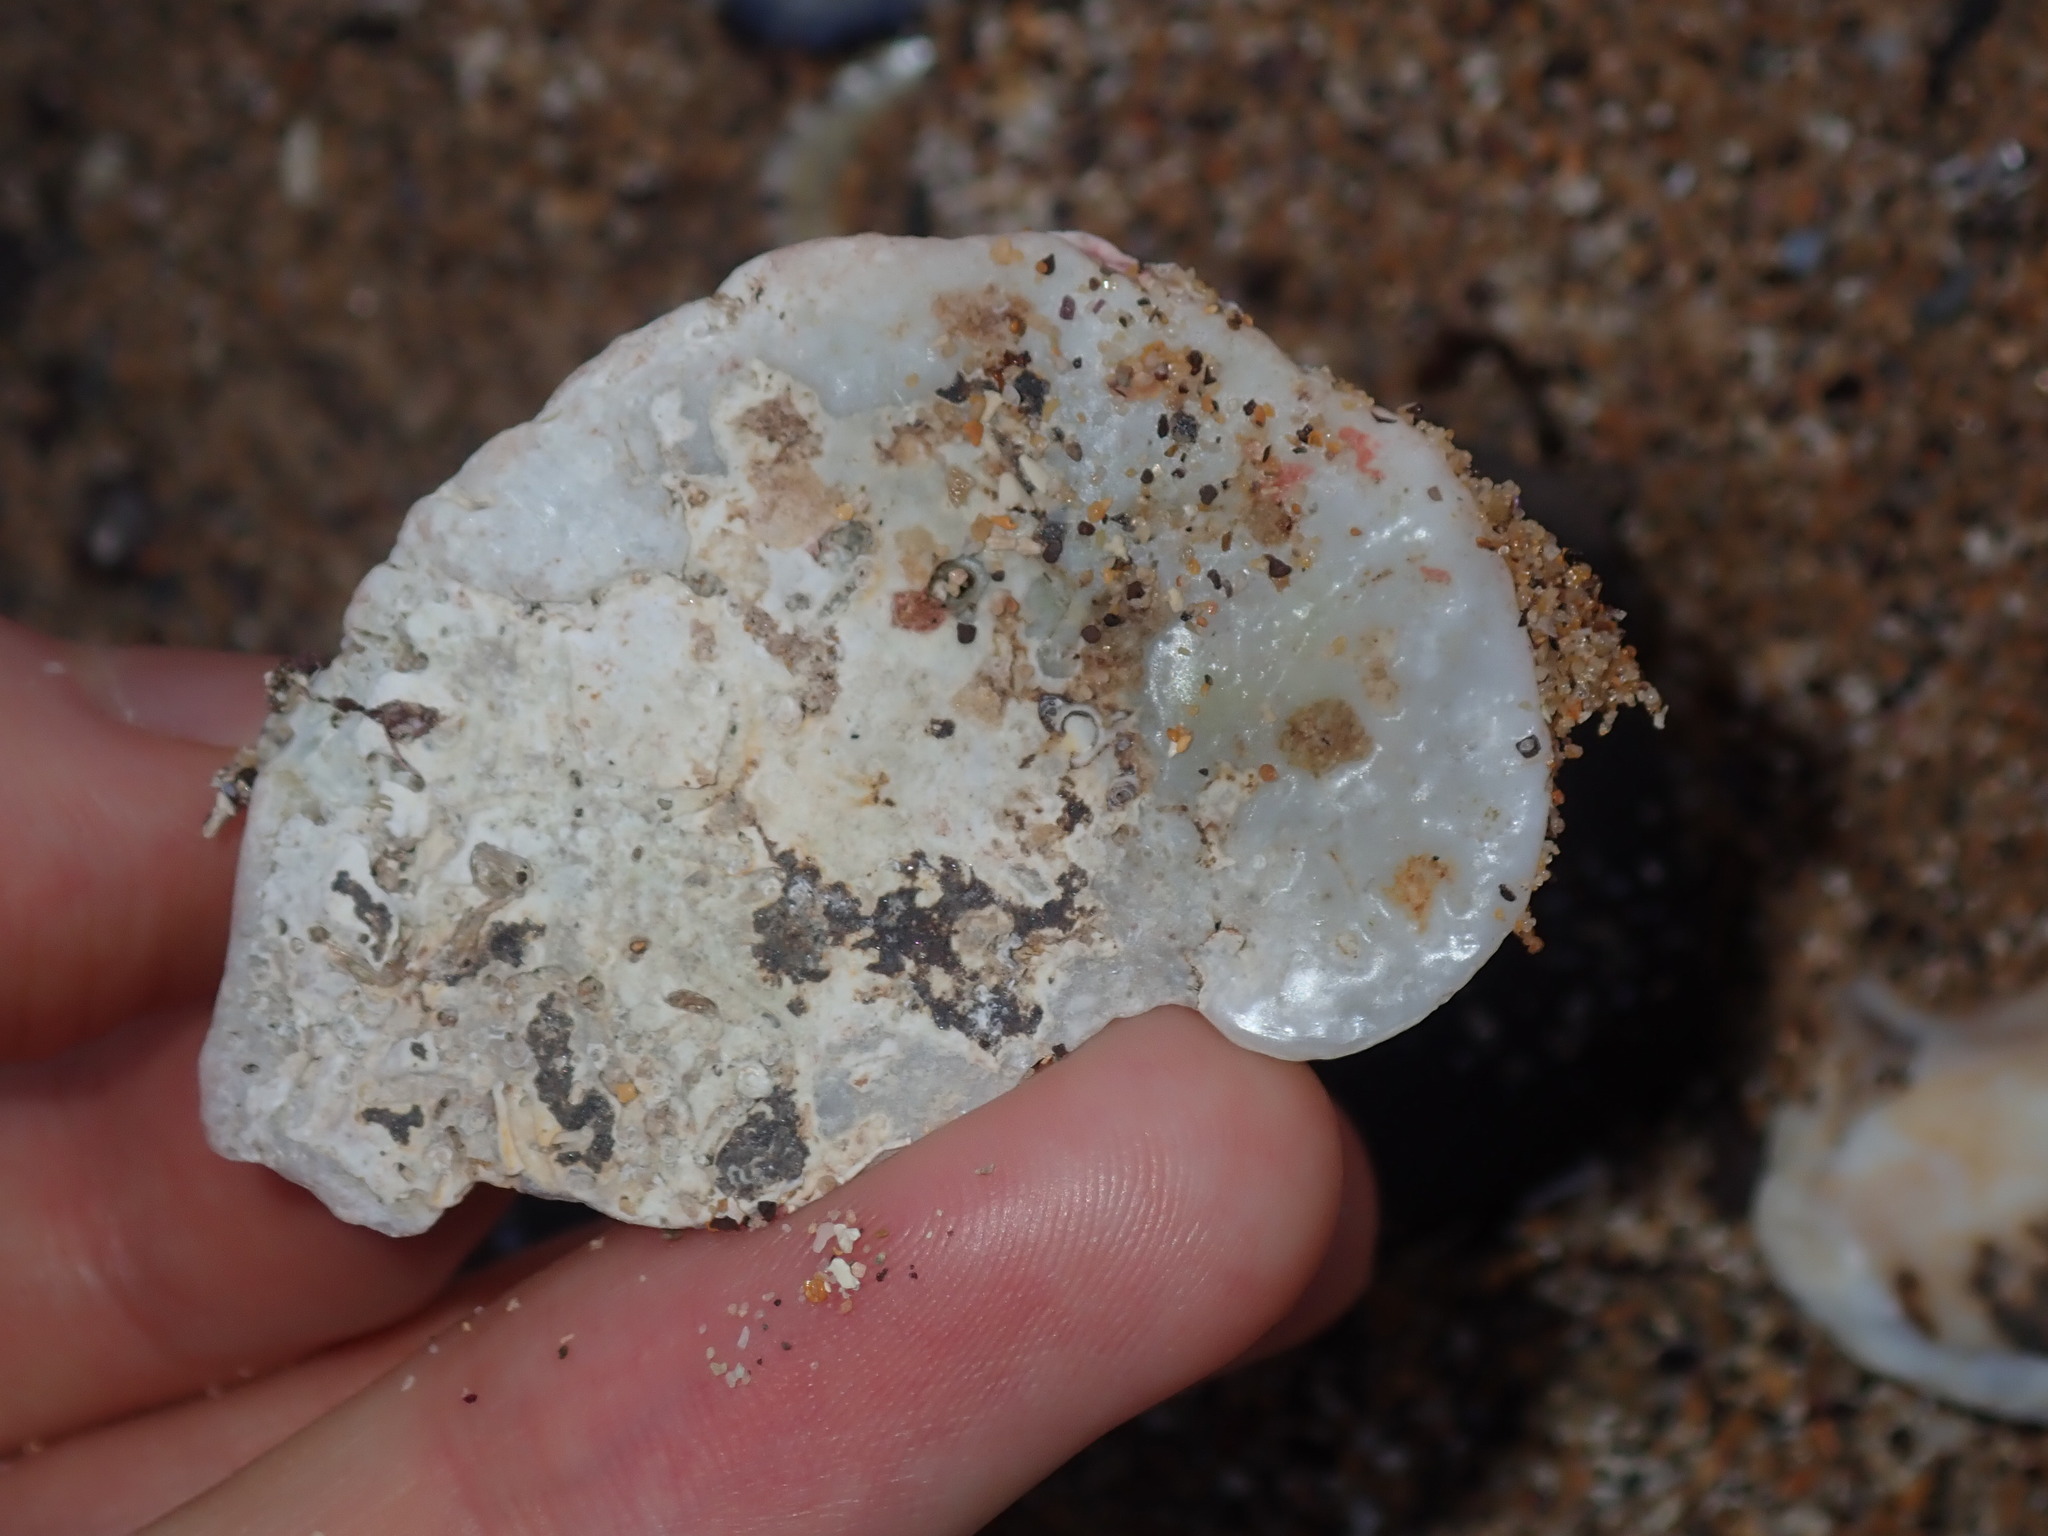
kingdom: Animalia
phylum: Mollusca
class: Bivalvia
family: Cleidothaeridae
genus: Cleidothaerus
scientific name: Cleidothaerus albidus
